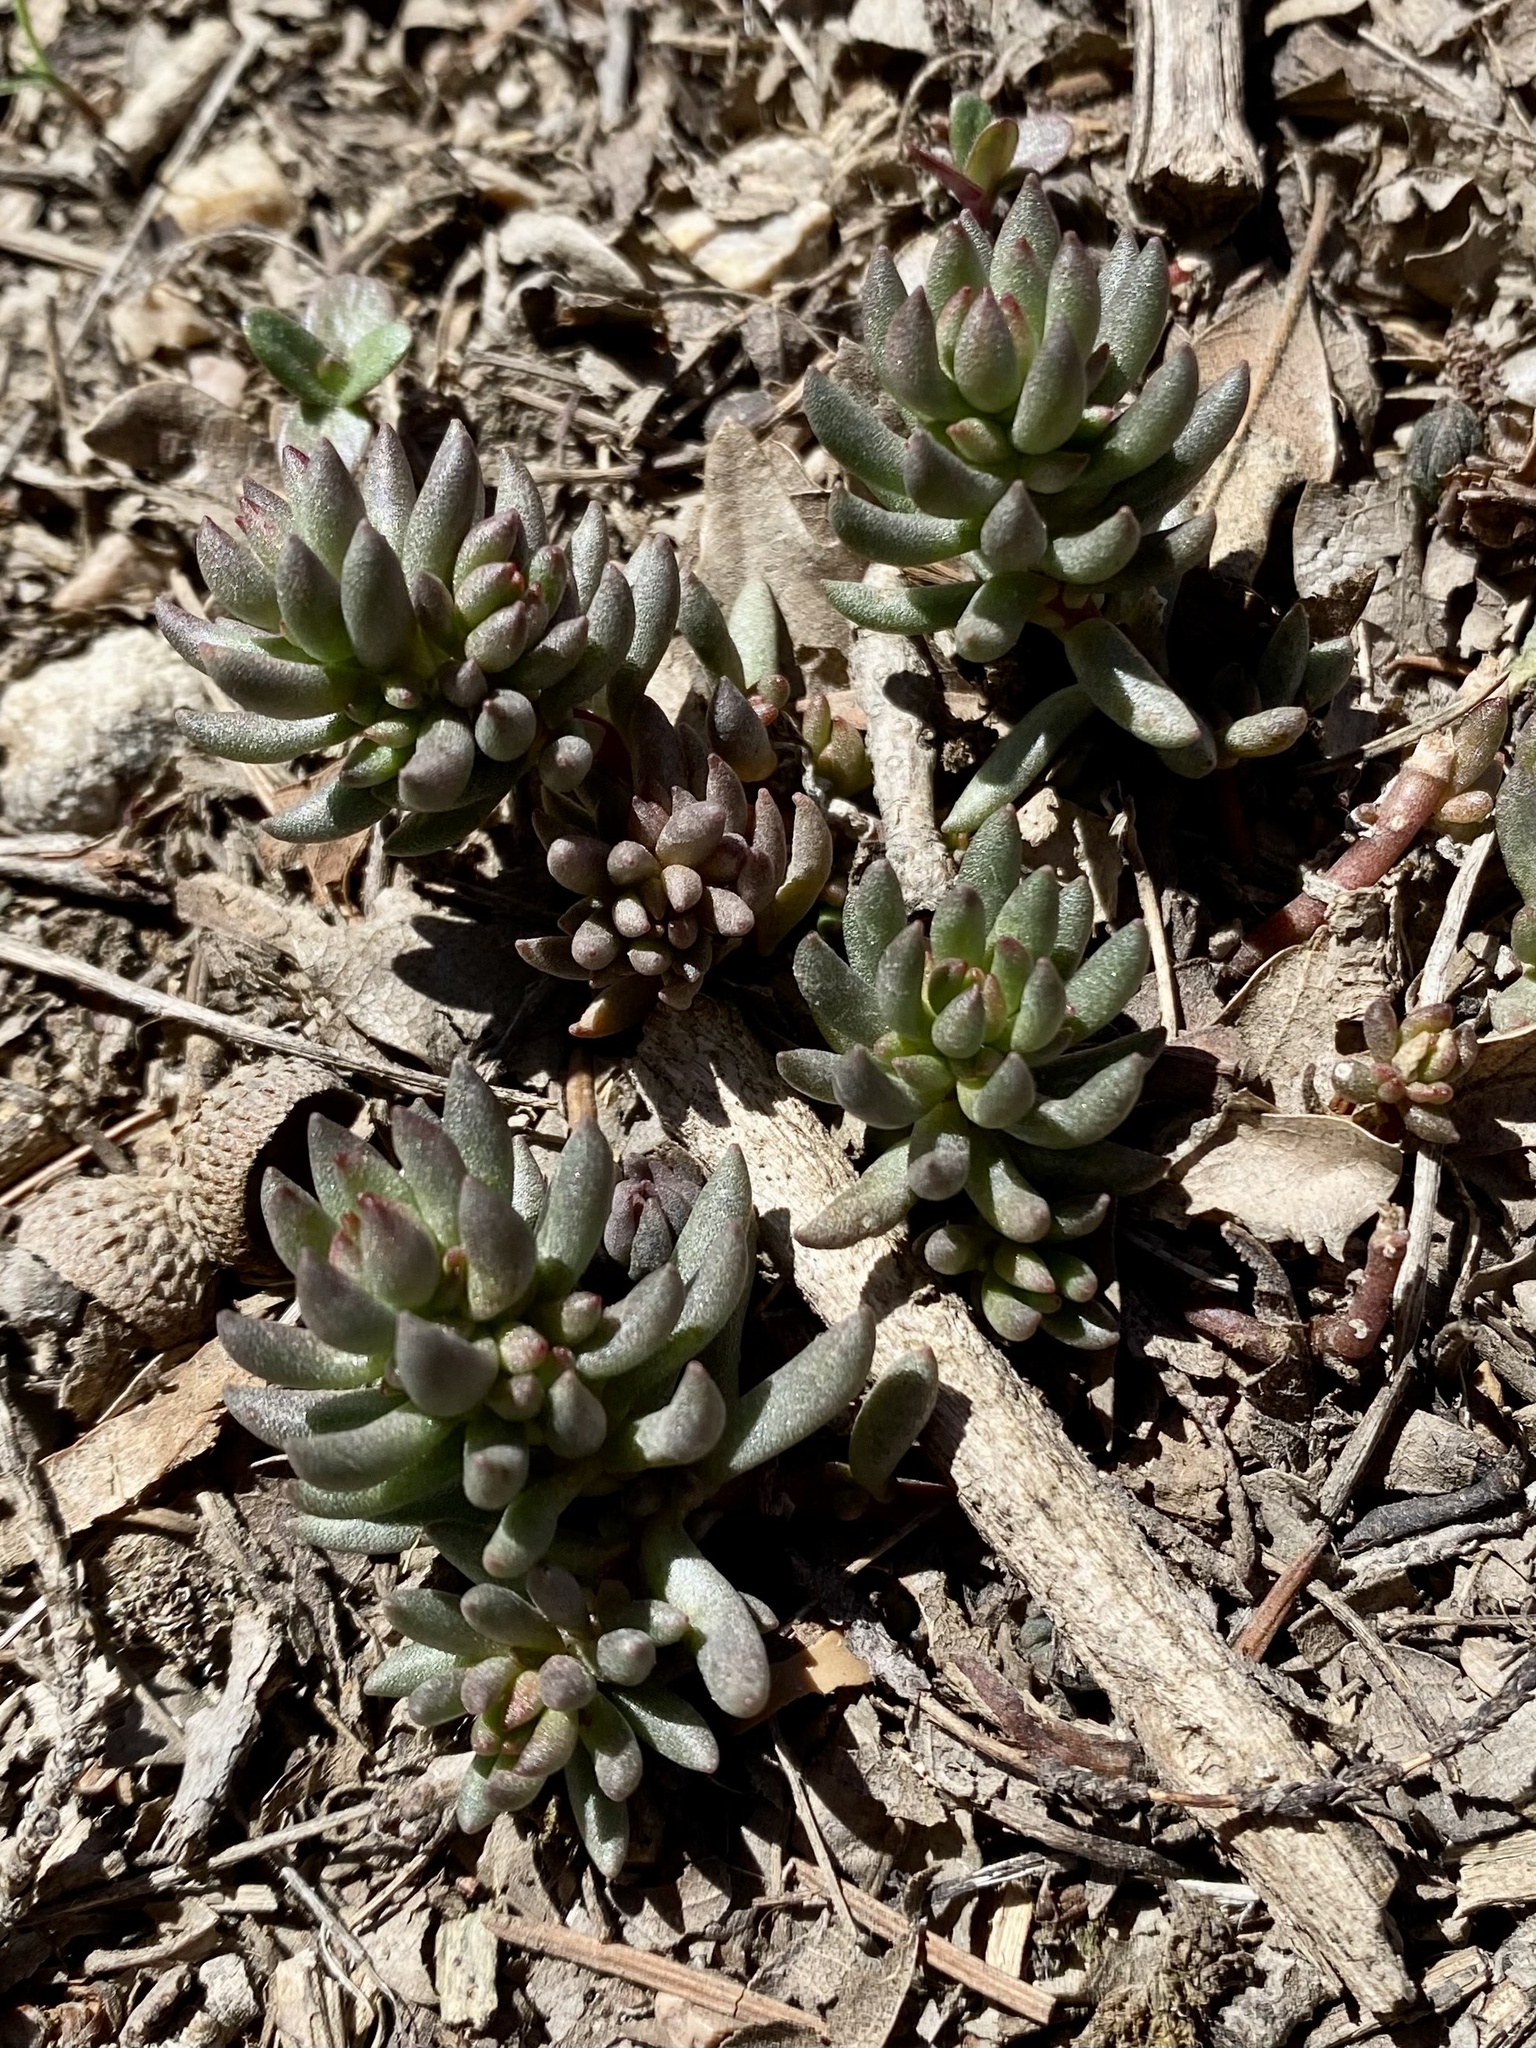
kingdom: Plantae
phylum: Tracheophyta
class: Magnoliopsida
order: Saxifragales
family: Crassulaceae
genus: Sedum
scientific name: Sedum lanceolatum
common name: Common stonecrop
